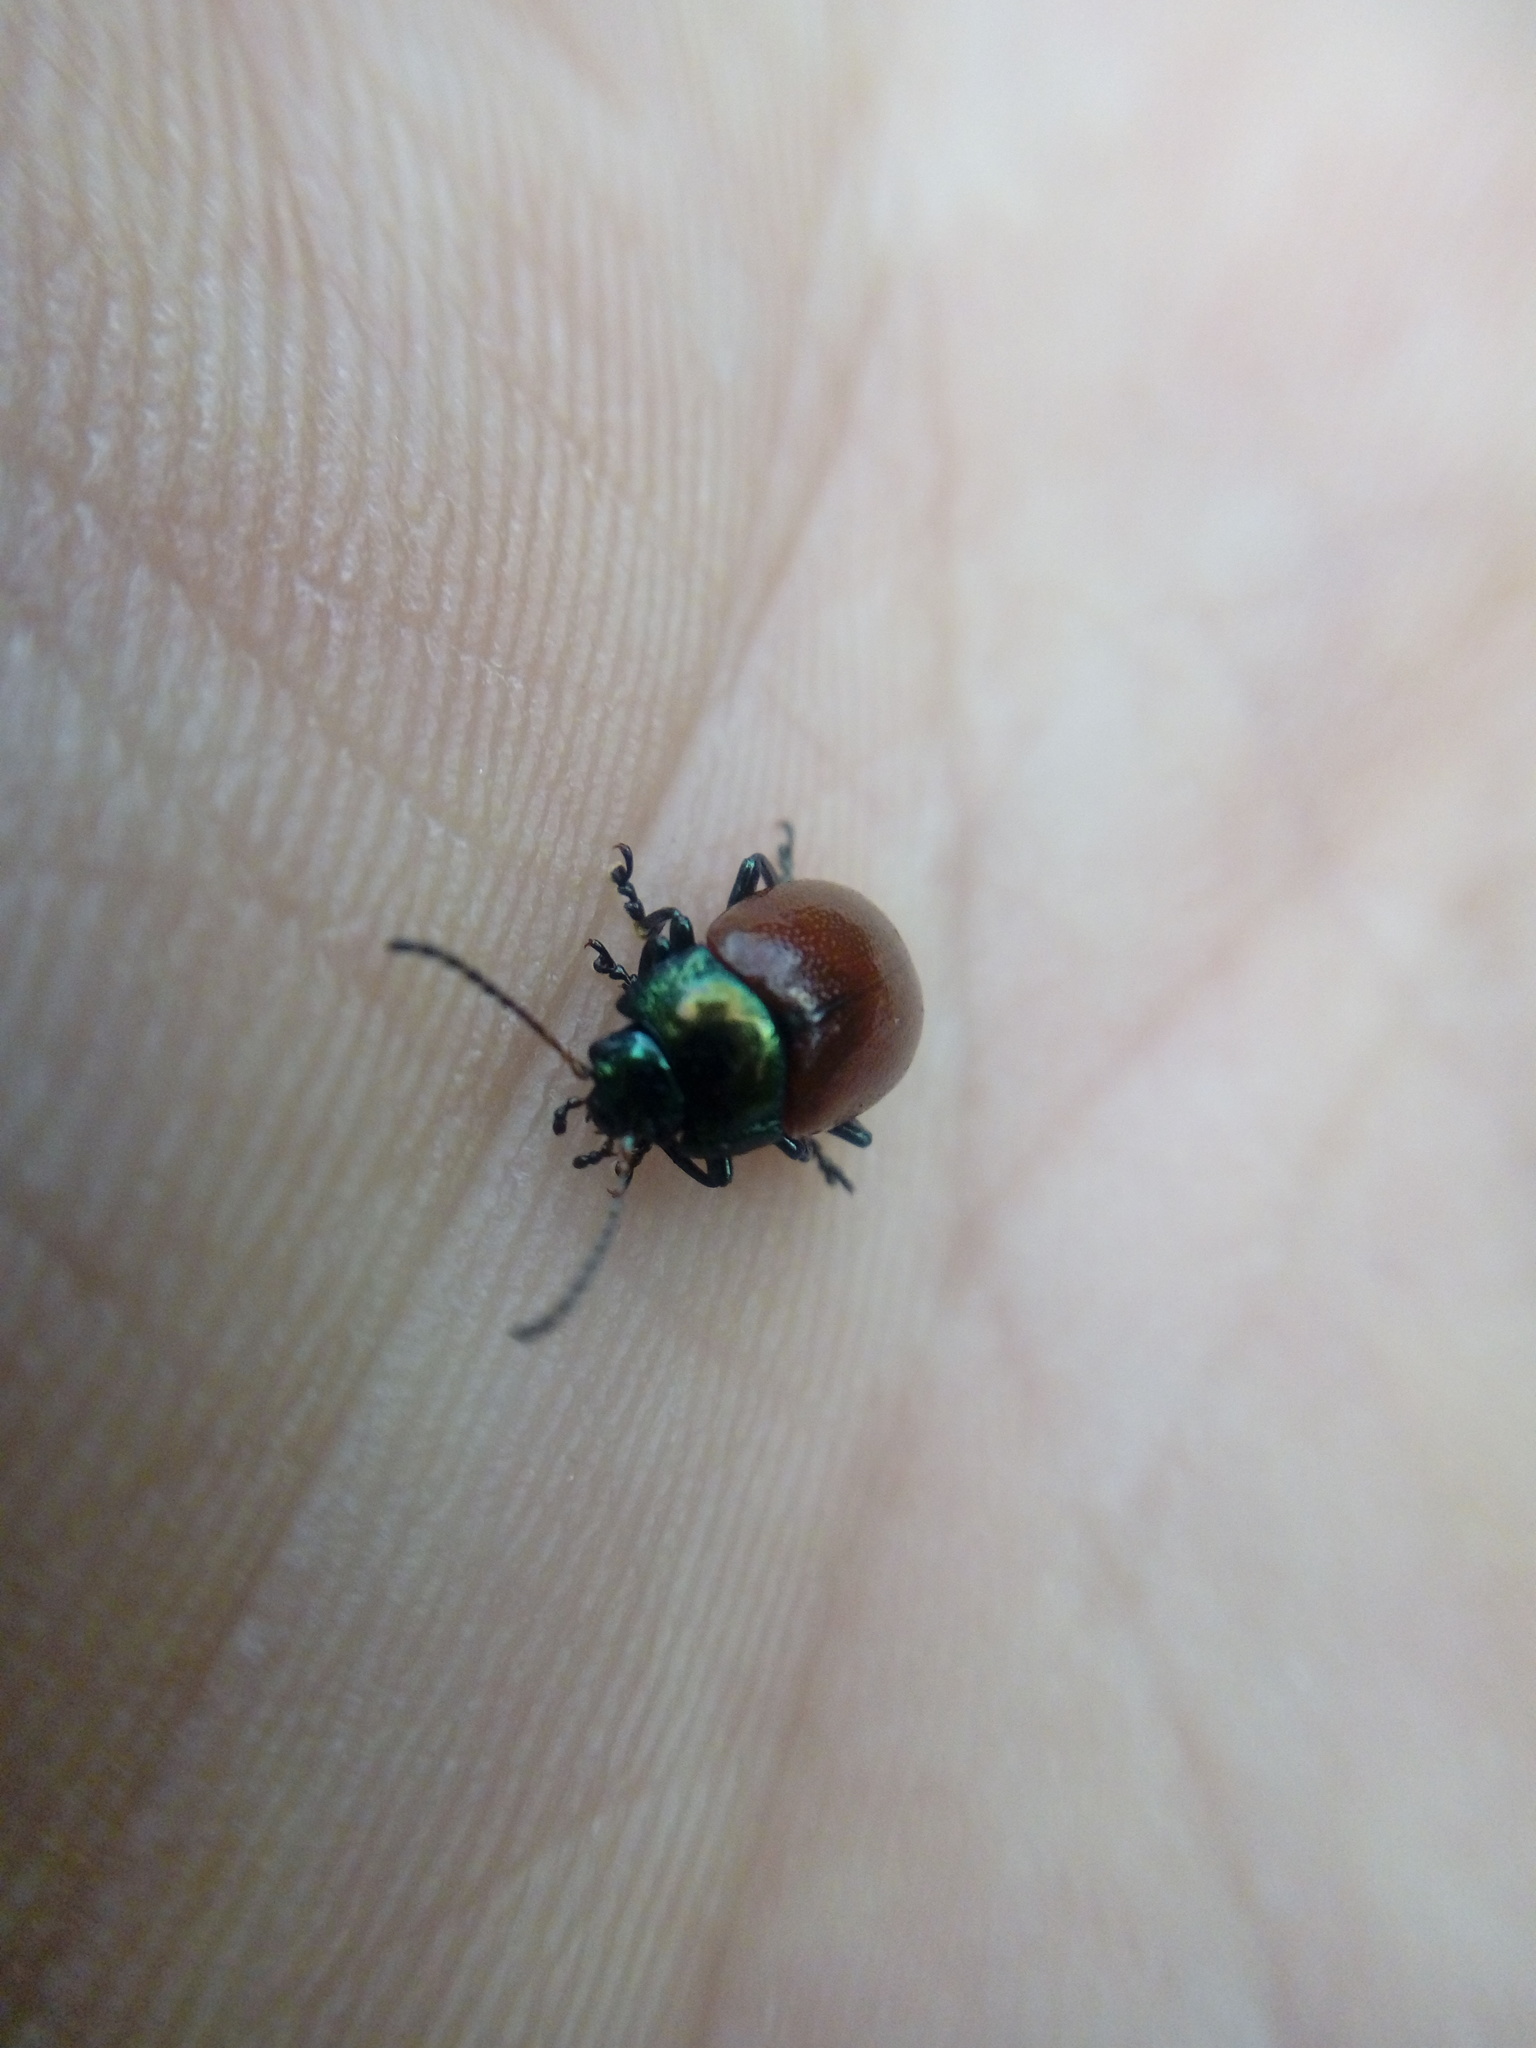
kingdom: Animalia
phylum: Arthropoda
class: Insecta
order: Coleoptera
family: Chrysomelidae
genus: Chrysomela
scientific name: Chrysomela polita
